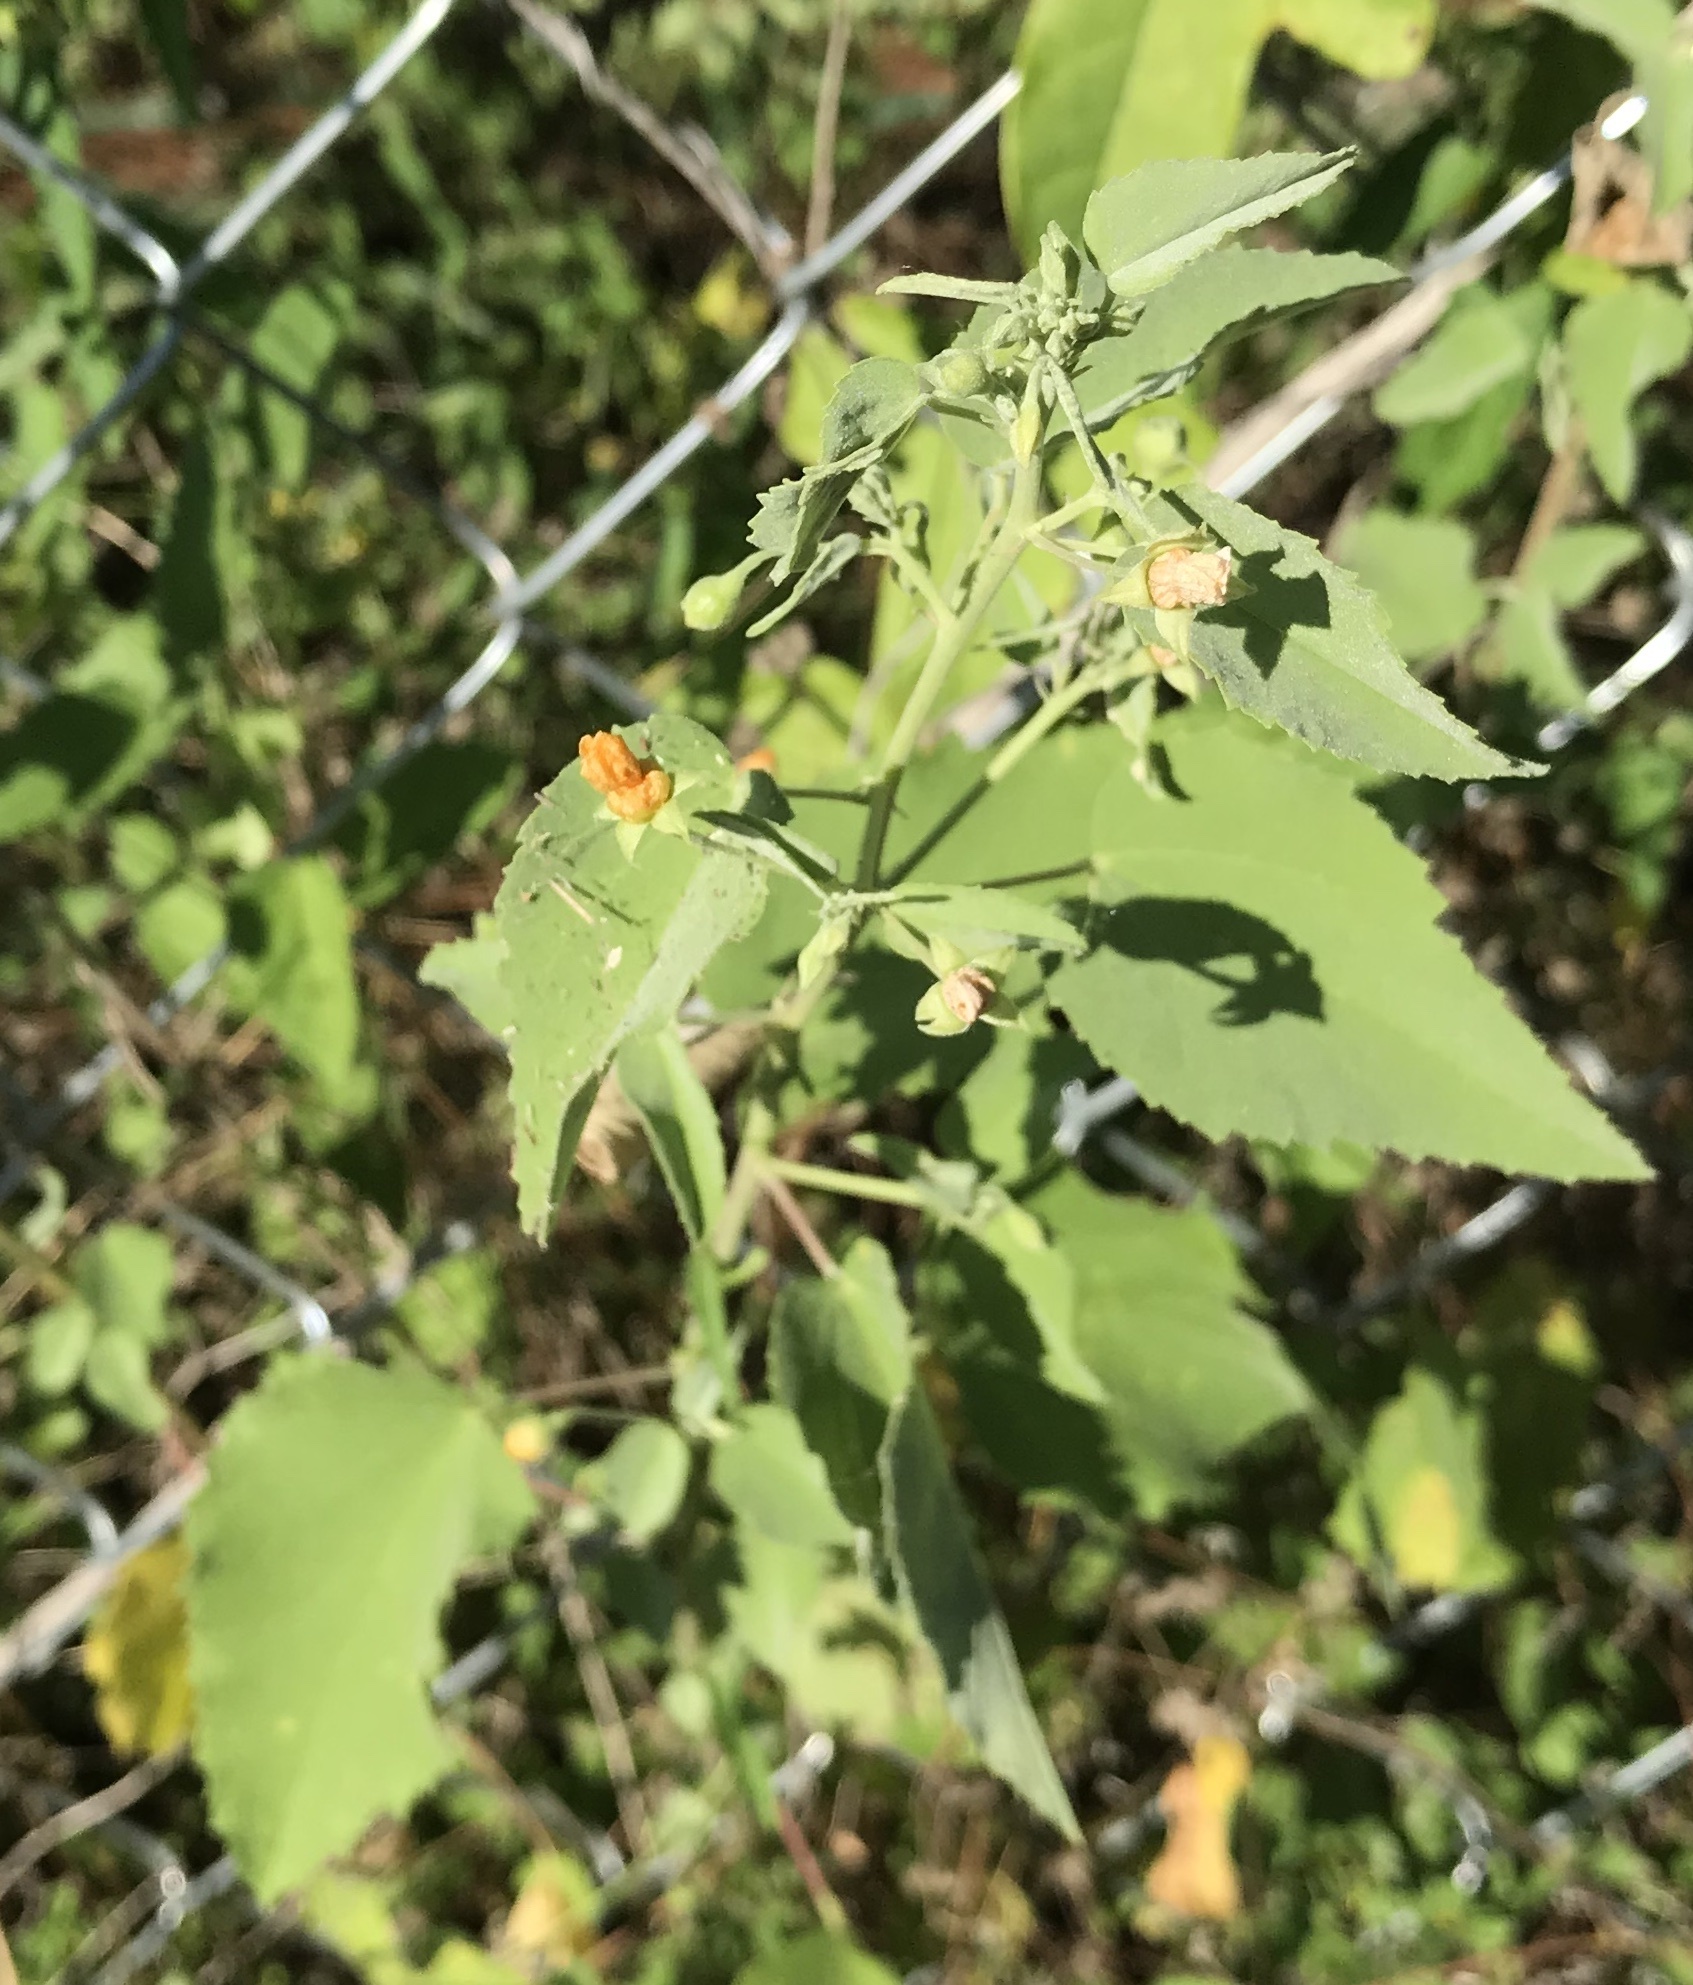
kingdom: Plantae
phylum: Tracheophyta
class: Magnoliopsida
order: Malvales
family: Malvaceae
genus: Abutilon
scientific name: Abutilon fruticosum
